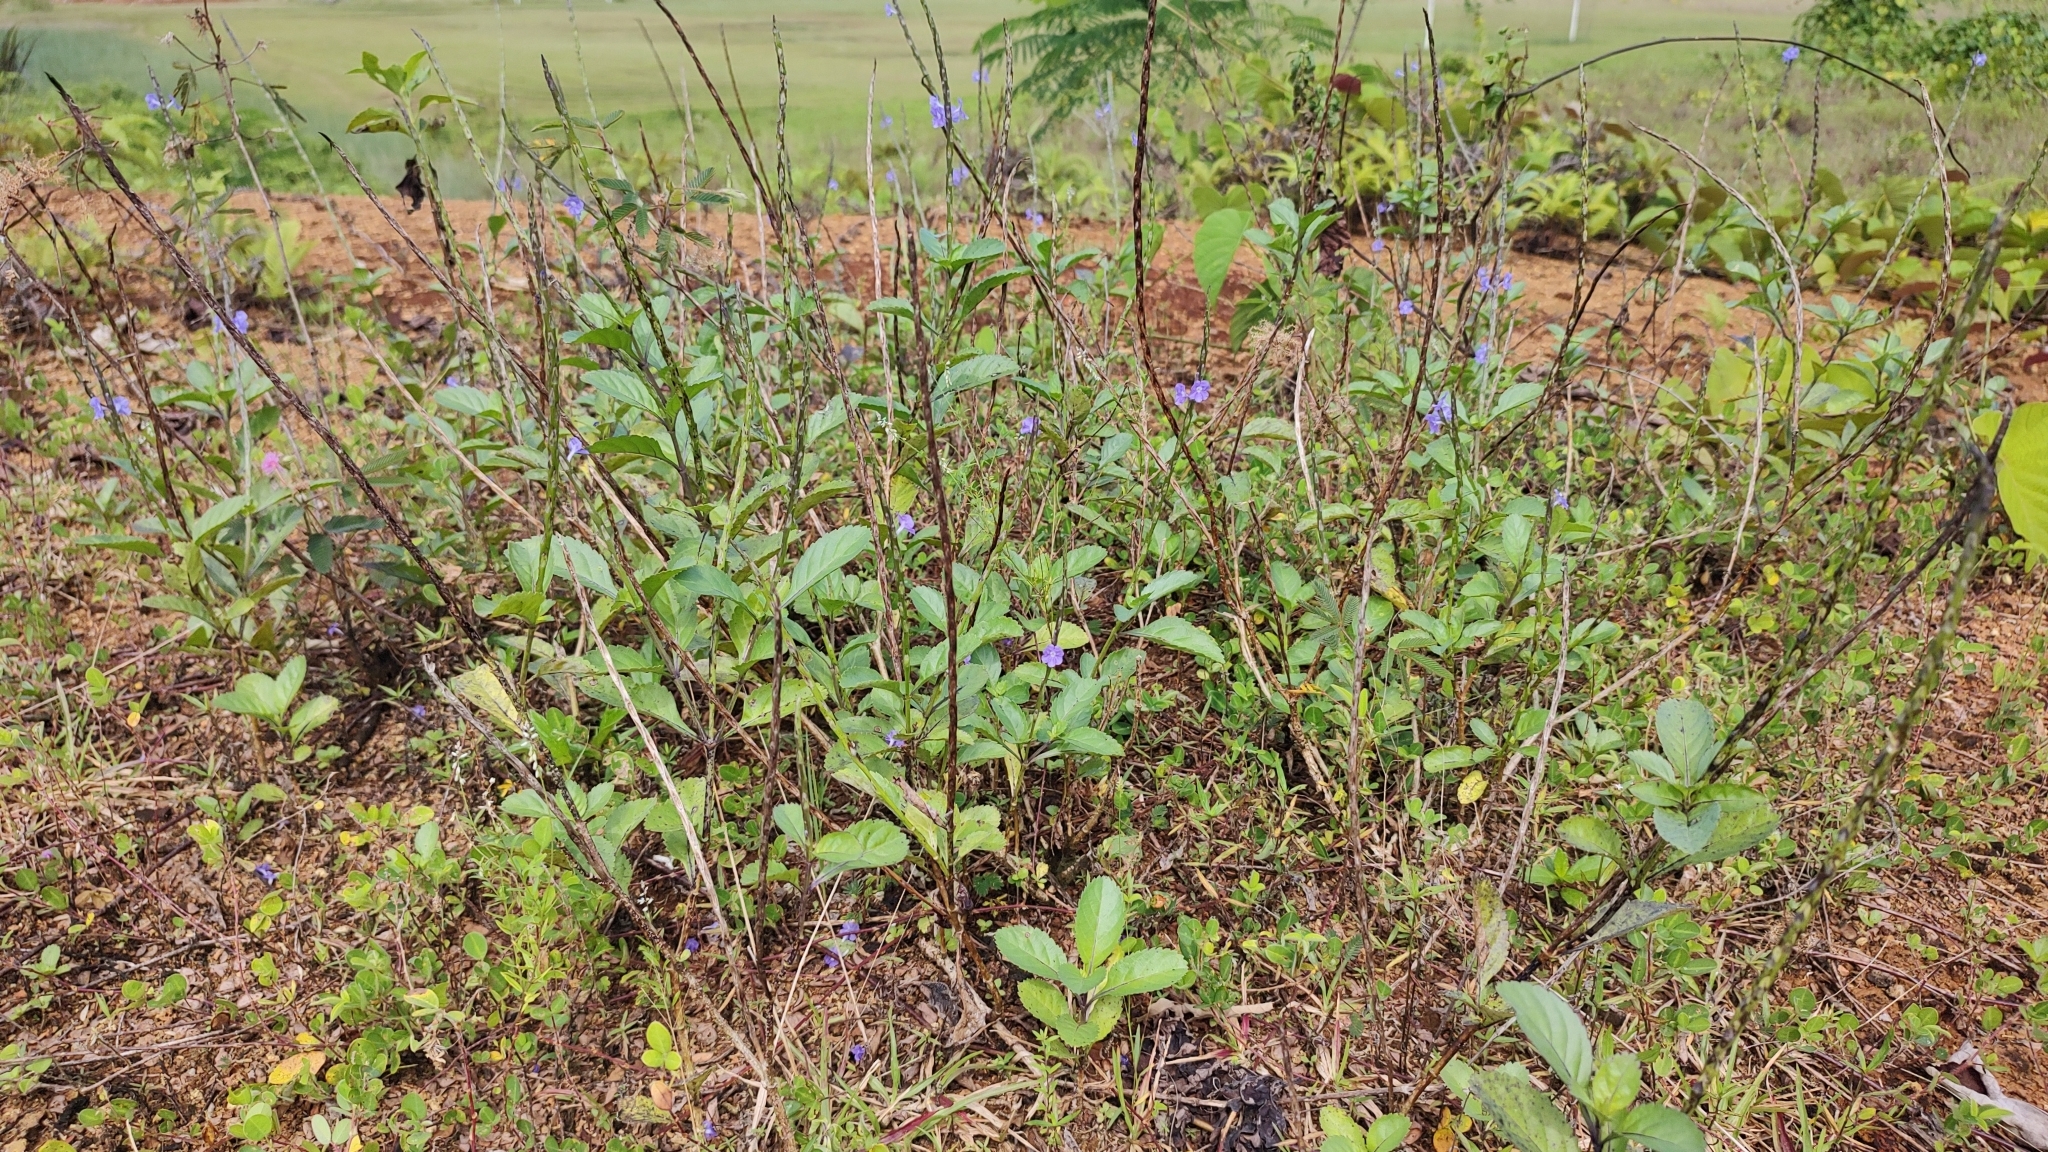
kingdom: Plantae
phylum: Tracheophyta
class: Magnoliopsida
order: Lamiales
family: Verbenaceae
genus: Stachytarpheta
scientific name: Stachytarpheta jamaicensis
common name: Light-blue snakeweed
